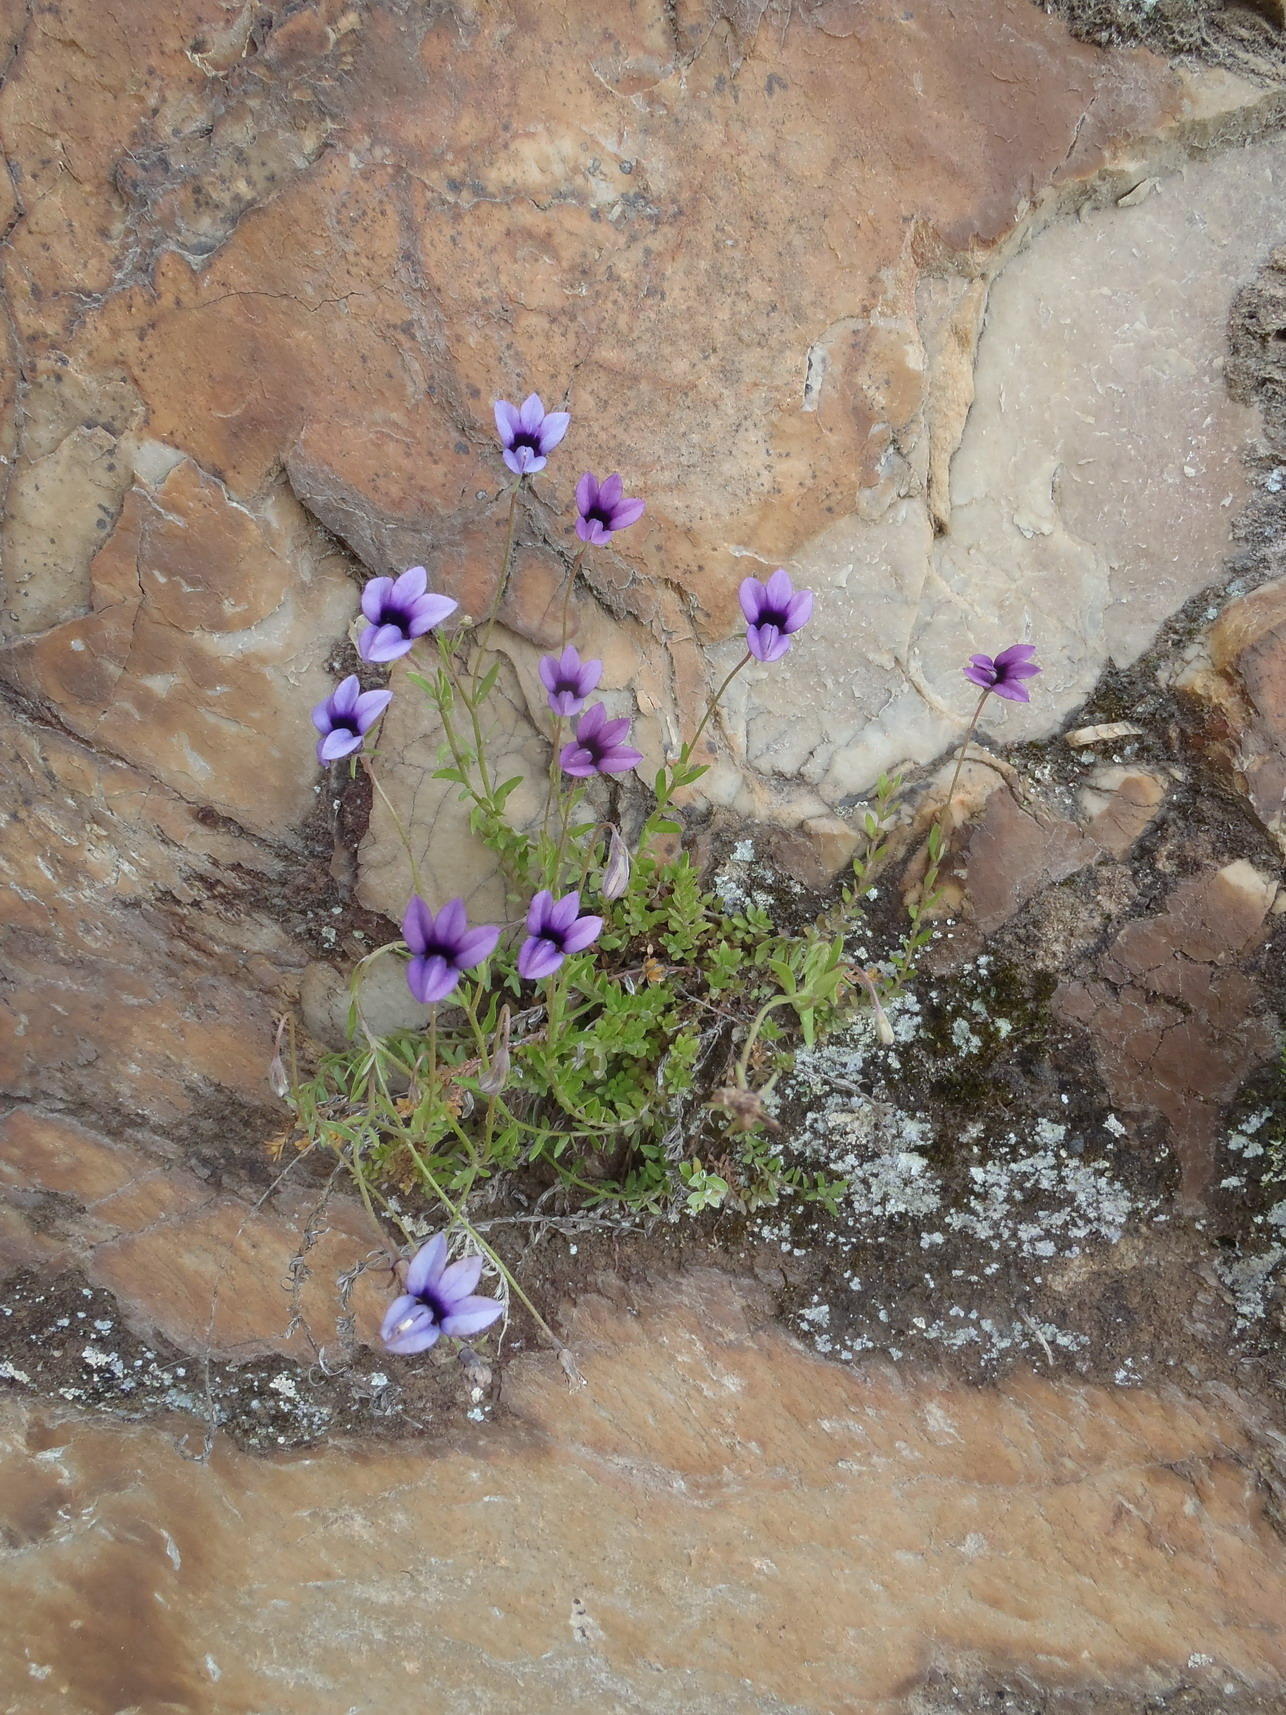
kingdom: Plantae
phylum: Tracheophyta
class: Magnoliopsida
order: Asterales
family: Campanulaceae
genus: Monopsis
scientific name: Monopsis unidentata
